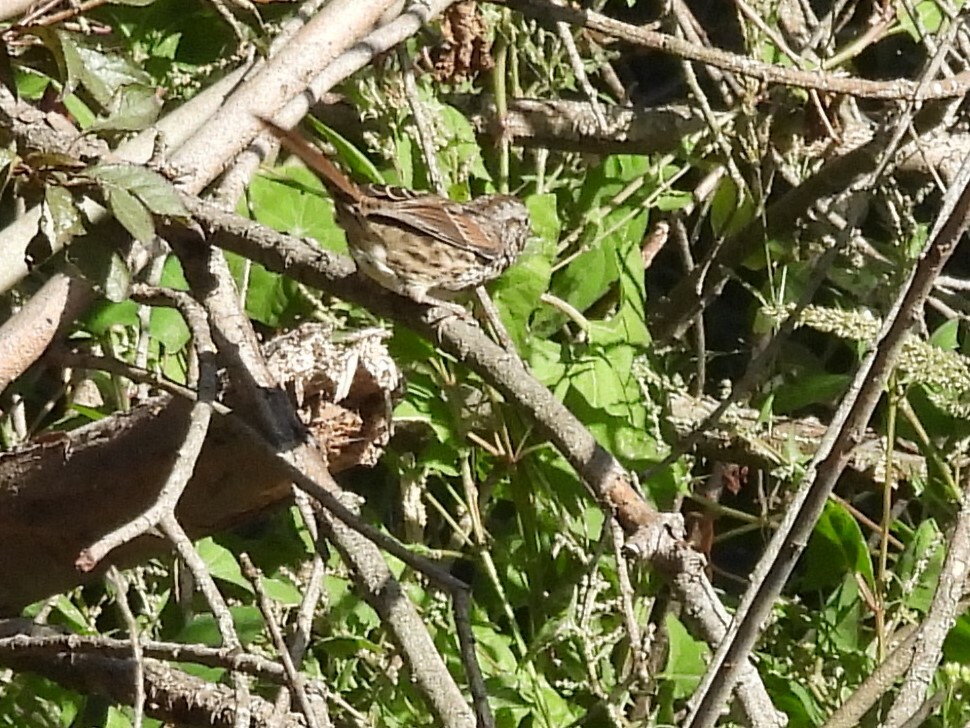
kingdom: Animalia
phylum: Chordata
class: Aves
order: Passeriformes
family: Passerellidae
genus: Melospiza
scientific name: Melospiza melodia
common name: Song sparrow
